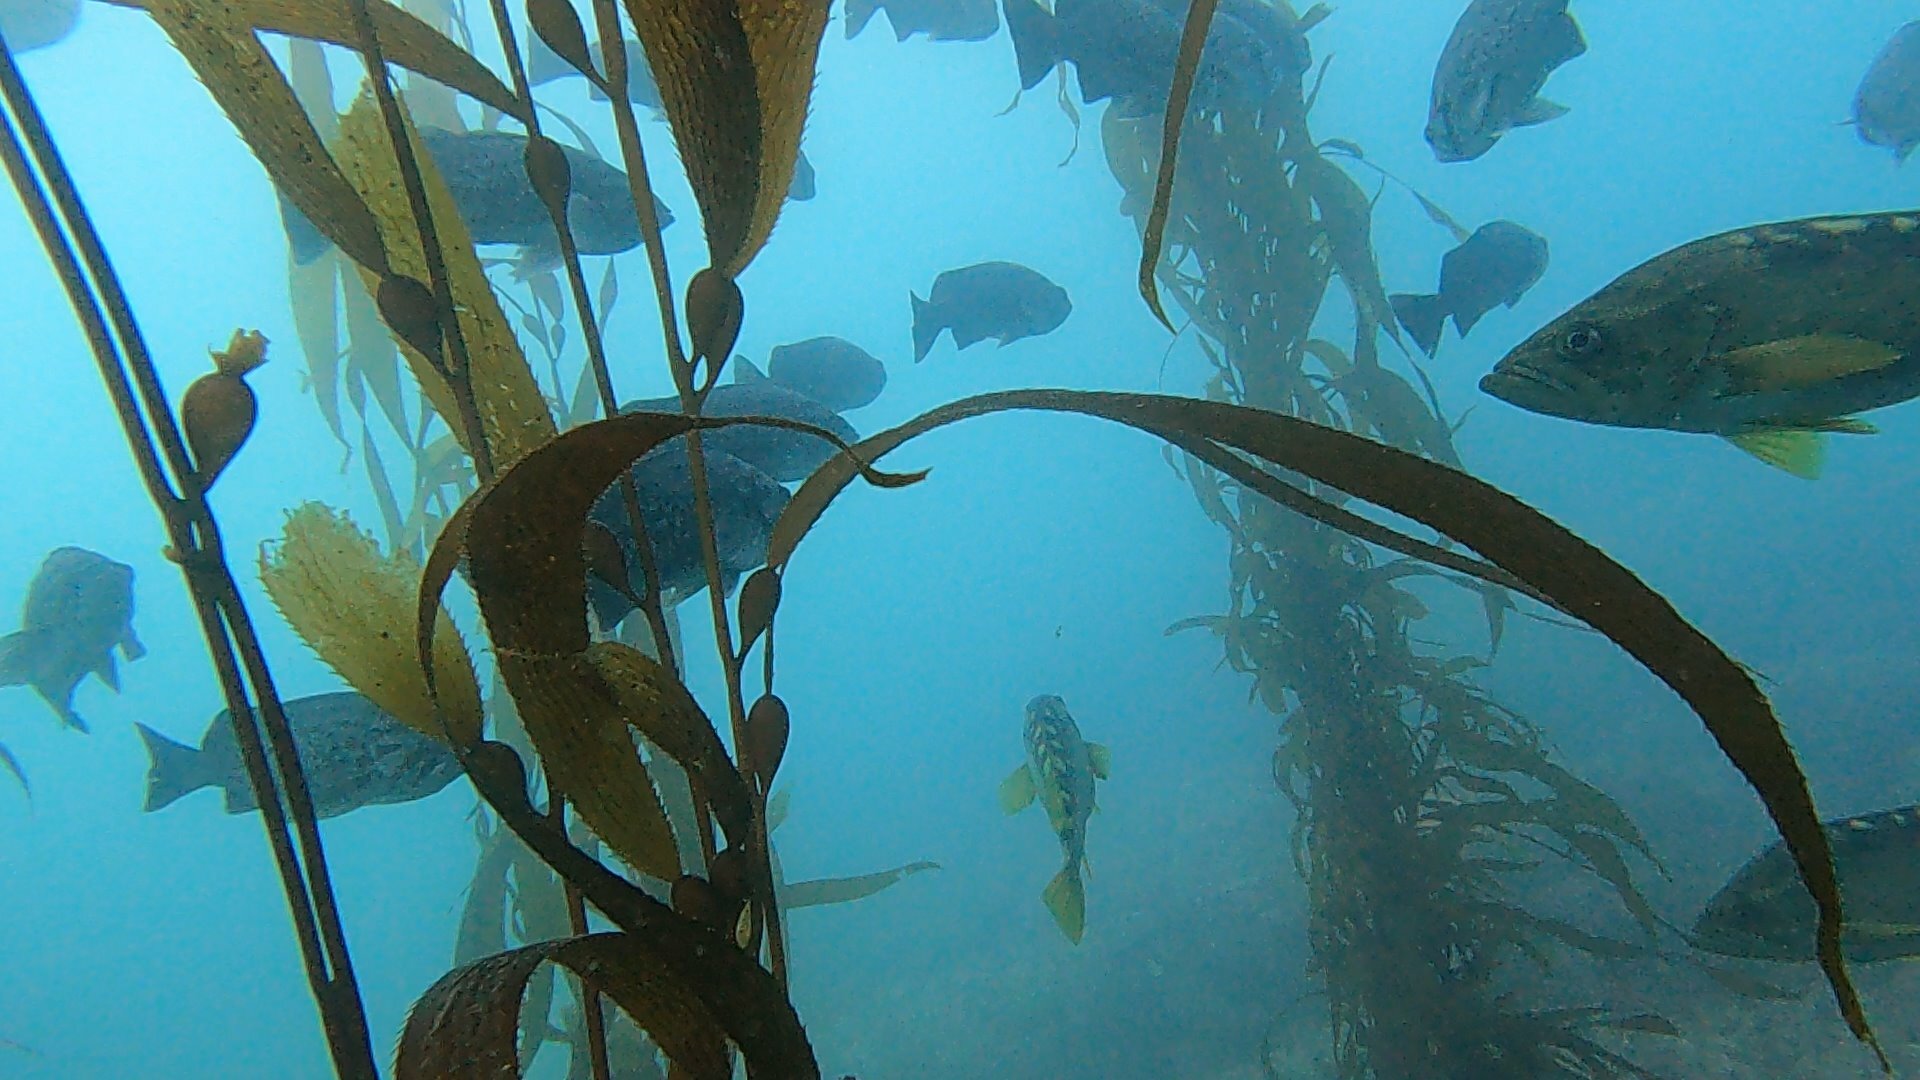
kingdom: Animalia
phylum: Chordata
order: Scorpaeniformes
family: Sebastidae
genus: Sebastes
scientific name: Sebastes mystinus
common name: Blue rockfish
